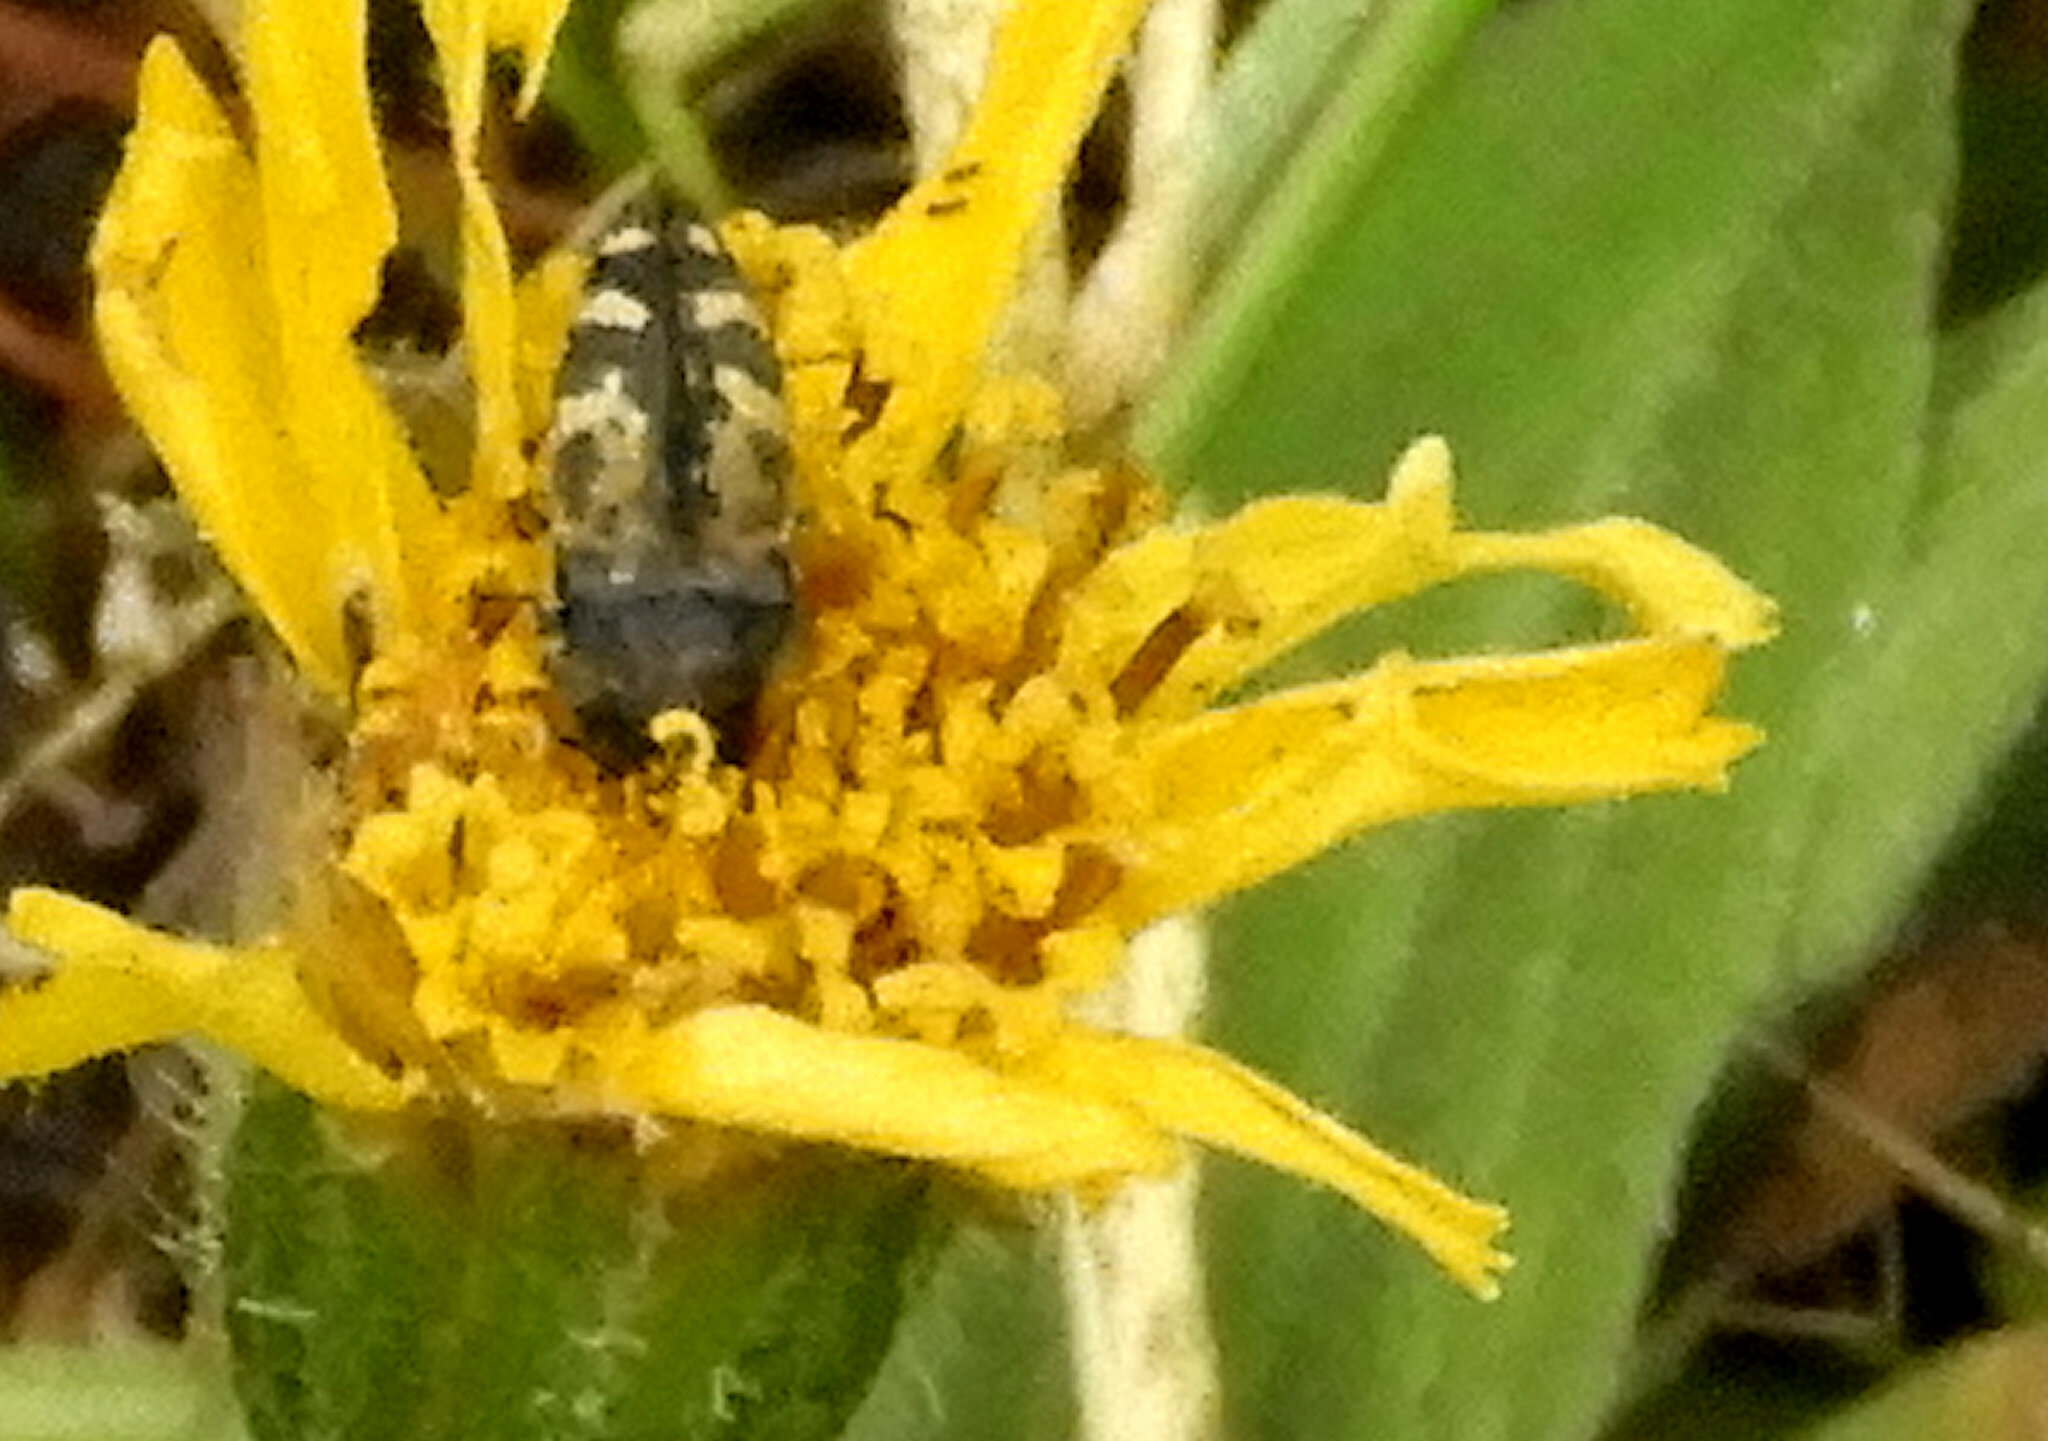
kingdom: Animalia
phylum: Arthropoda
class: Insecta
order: Coleoptera
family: Buprestidae
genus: Acmaeodera
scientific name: Acmaeodera connexa
